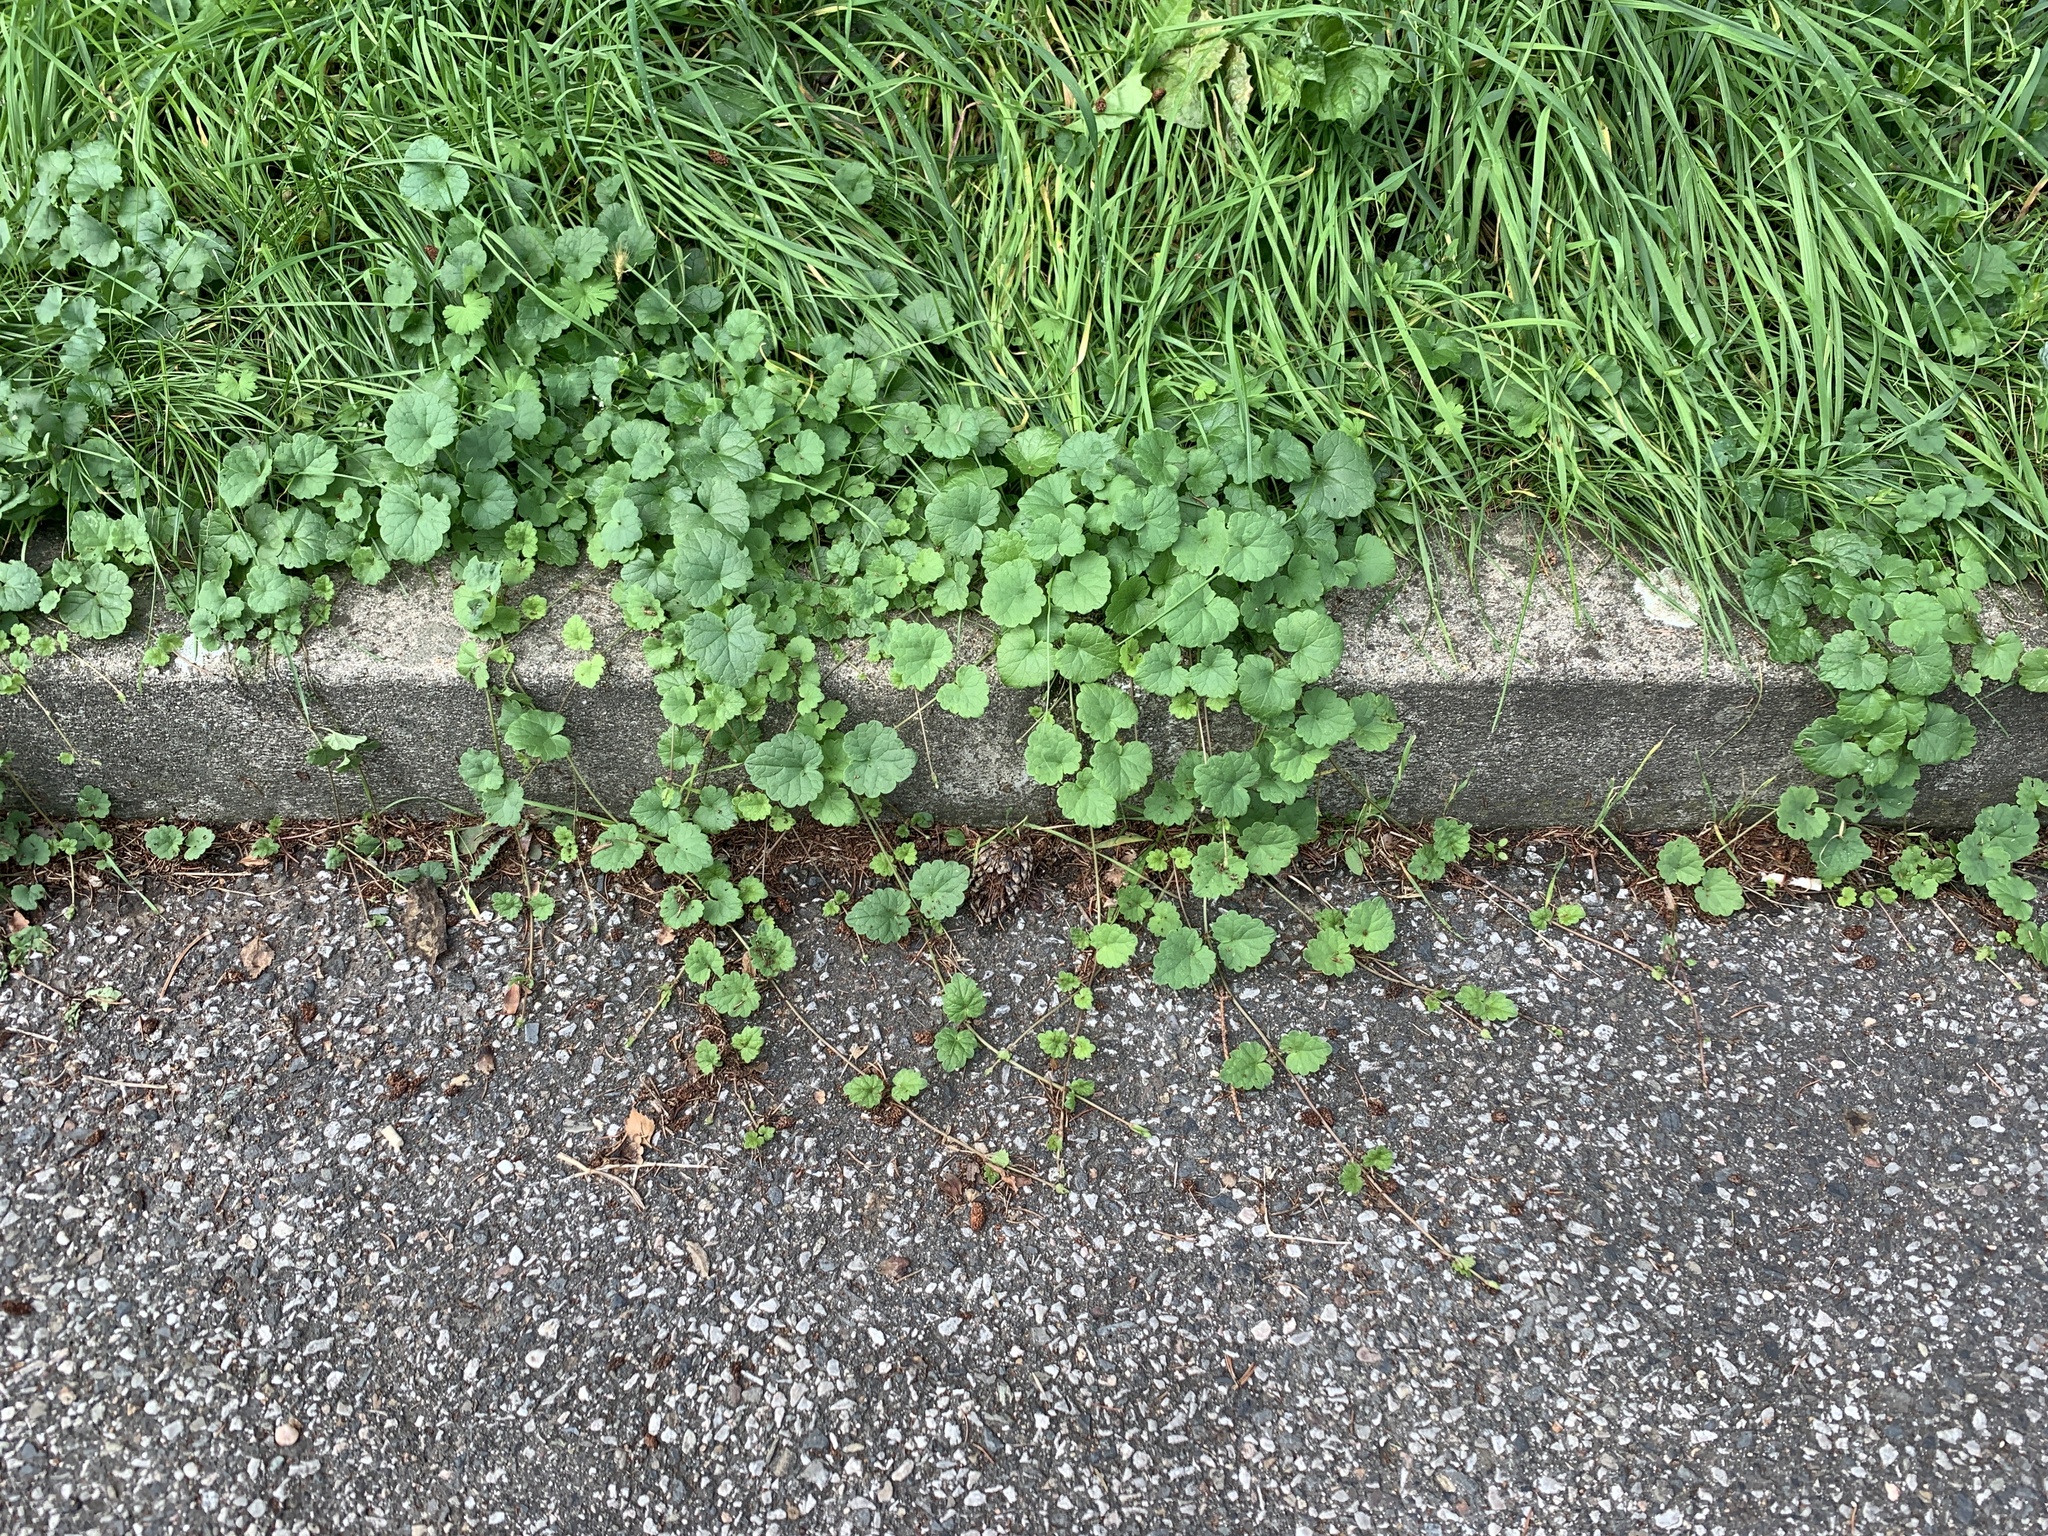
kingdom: Plantae
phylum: Tracheophyta
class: Magnoliopsida
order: Lamiales
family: Lamiaceae
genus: Glechoma
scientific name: Glechoma hederacea
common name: Ground ivy
